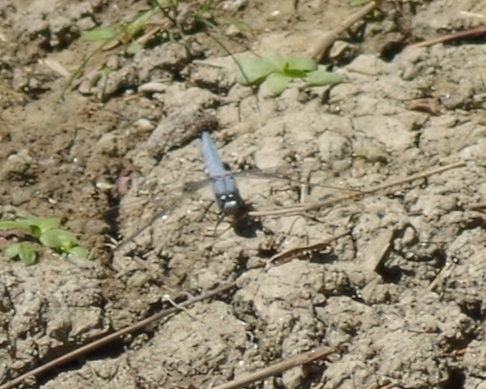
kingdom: Animalia
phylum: Arthropoda
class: Insecta
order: Odonata
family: Libellulidae
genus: Orthetrum
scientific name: Orthetrum brunneum
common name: Southern skimmer
